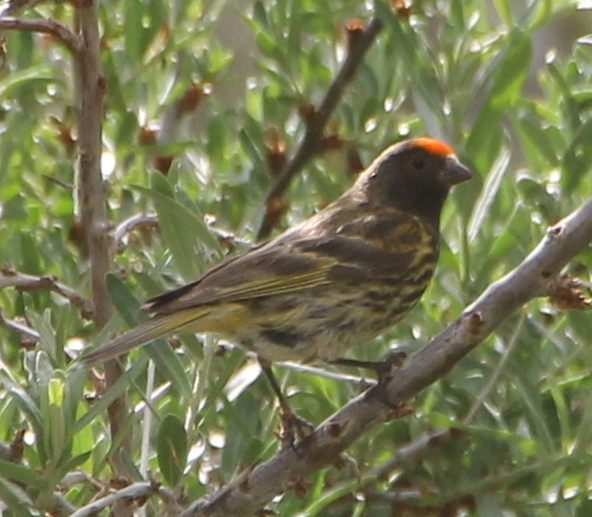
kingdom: Animalia
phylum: Chordata
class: Aves
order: Passeriformes
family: Fringillidae
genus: Serinus
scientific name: Serinus pusillus
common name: Red-fronted serin
